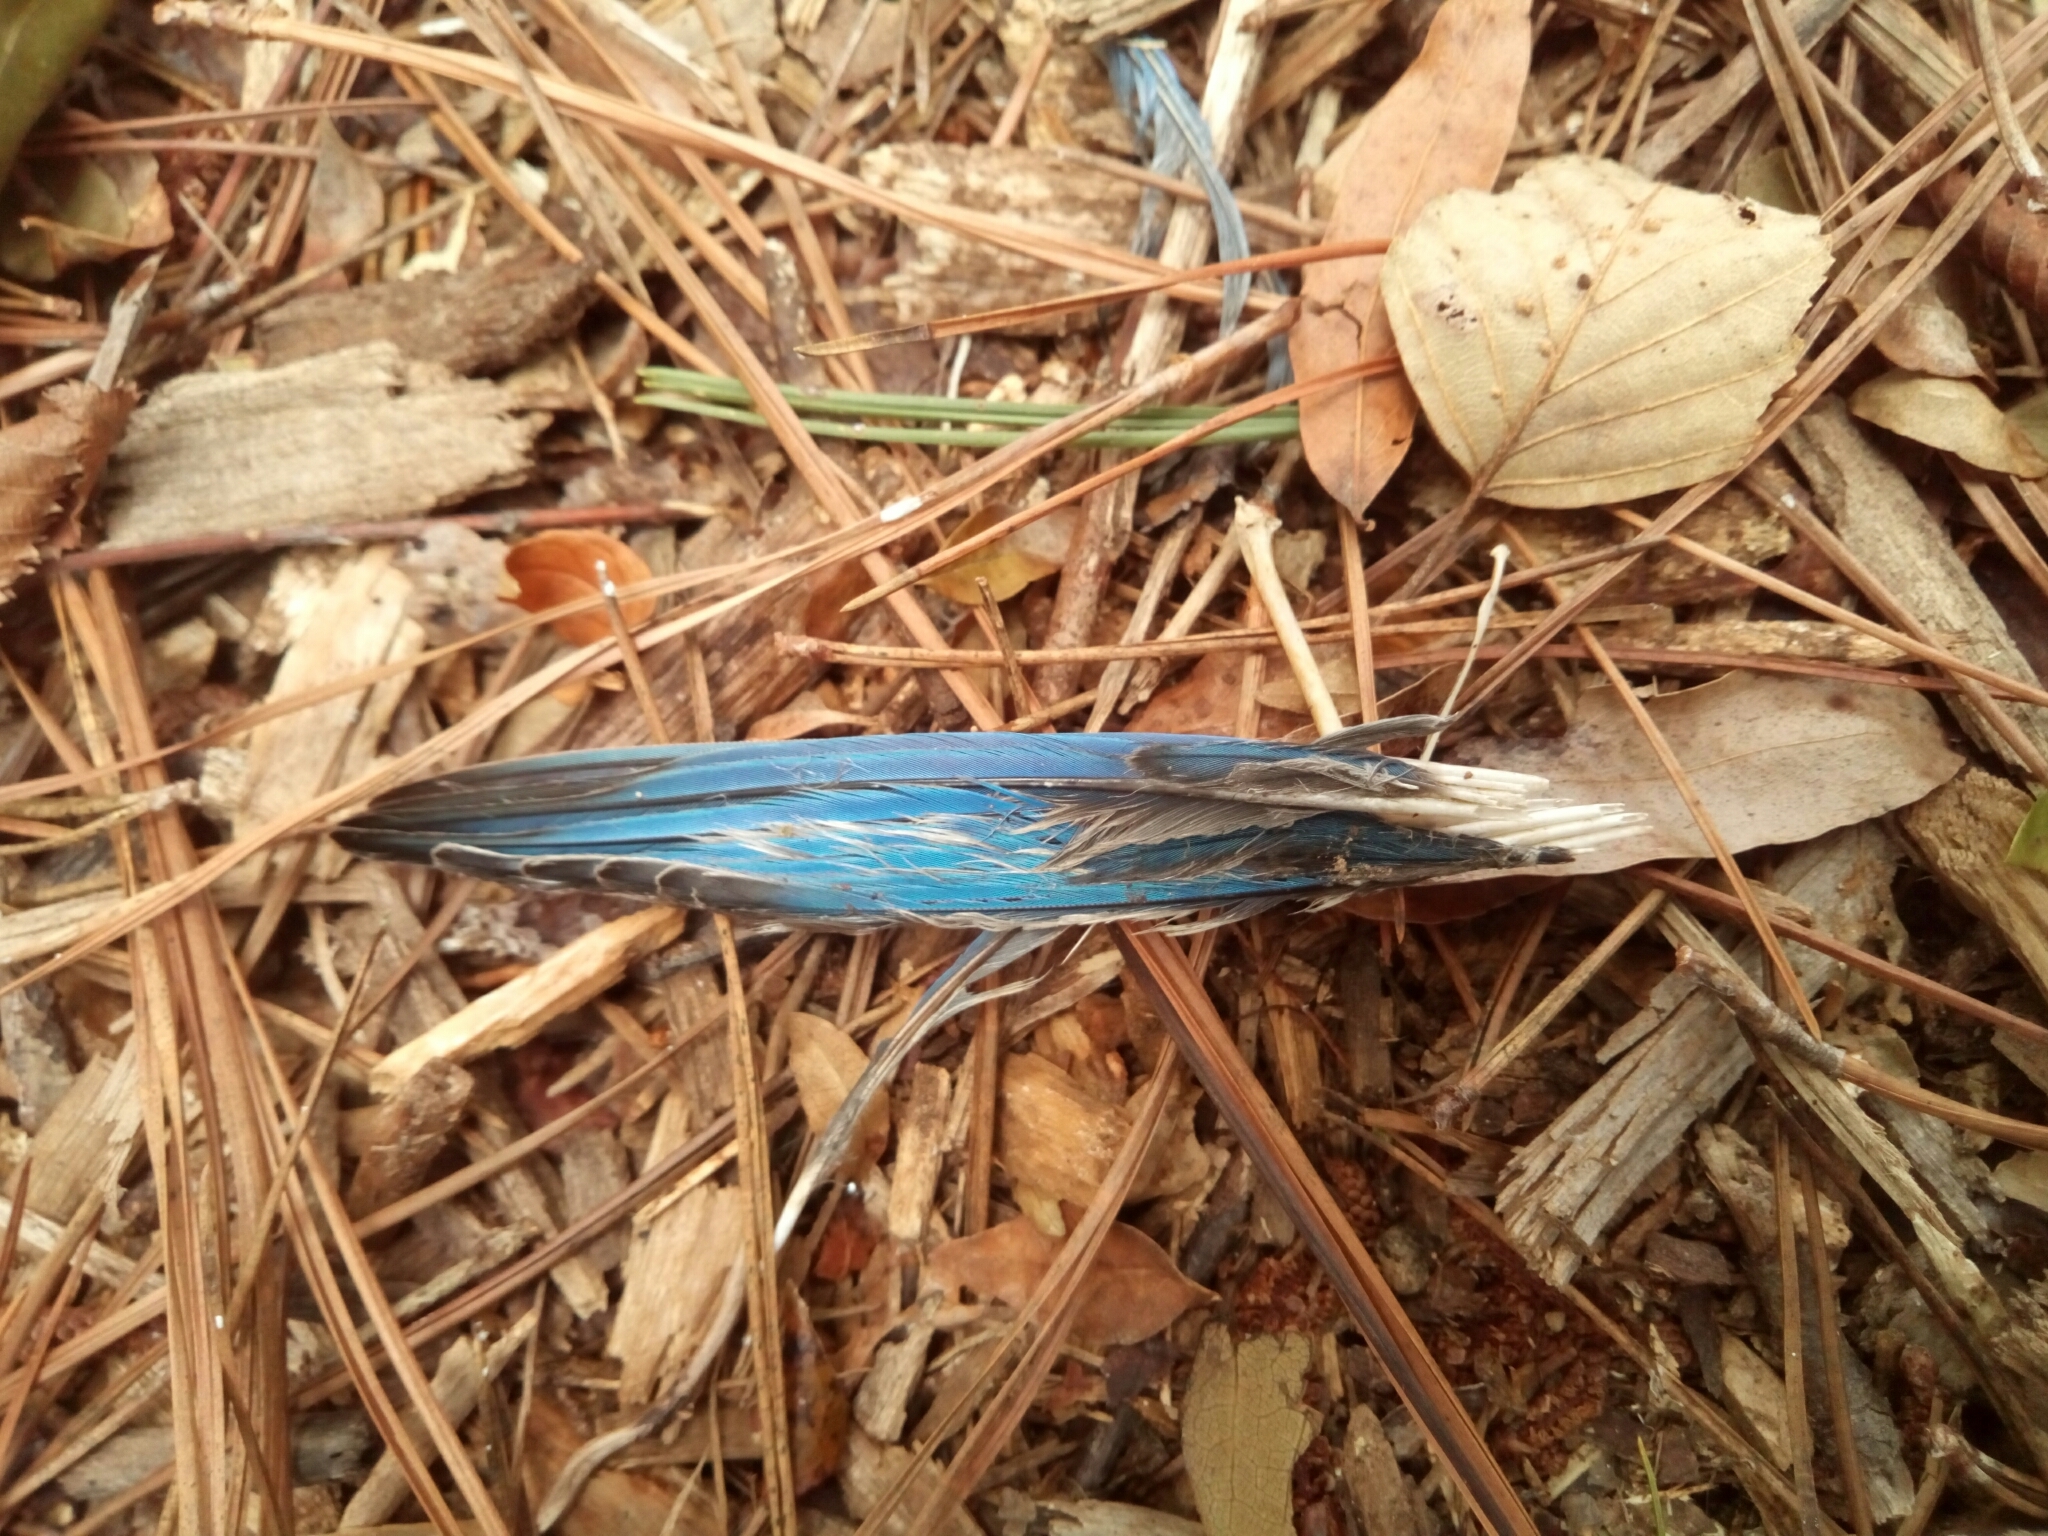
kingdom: Animalia
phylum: Chordata
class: Aves
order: Passeriformes
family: Corvidae
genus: Cyanocitta
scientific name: Cyanocitta cristata
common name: Blue jay
